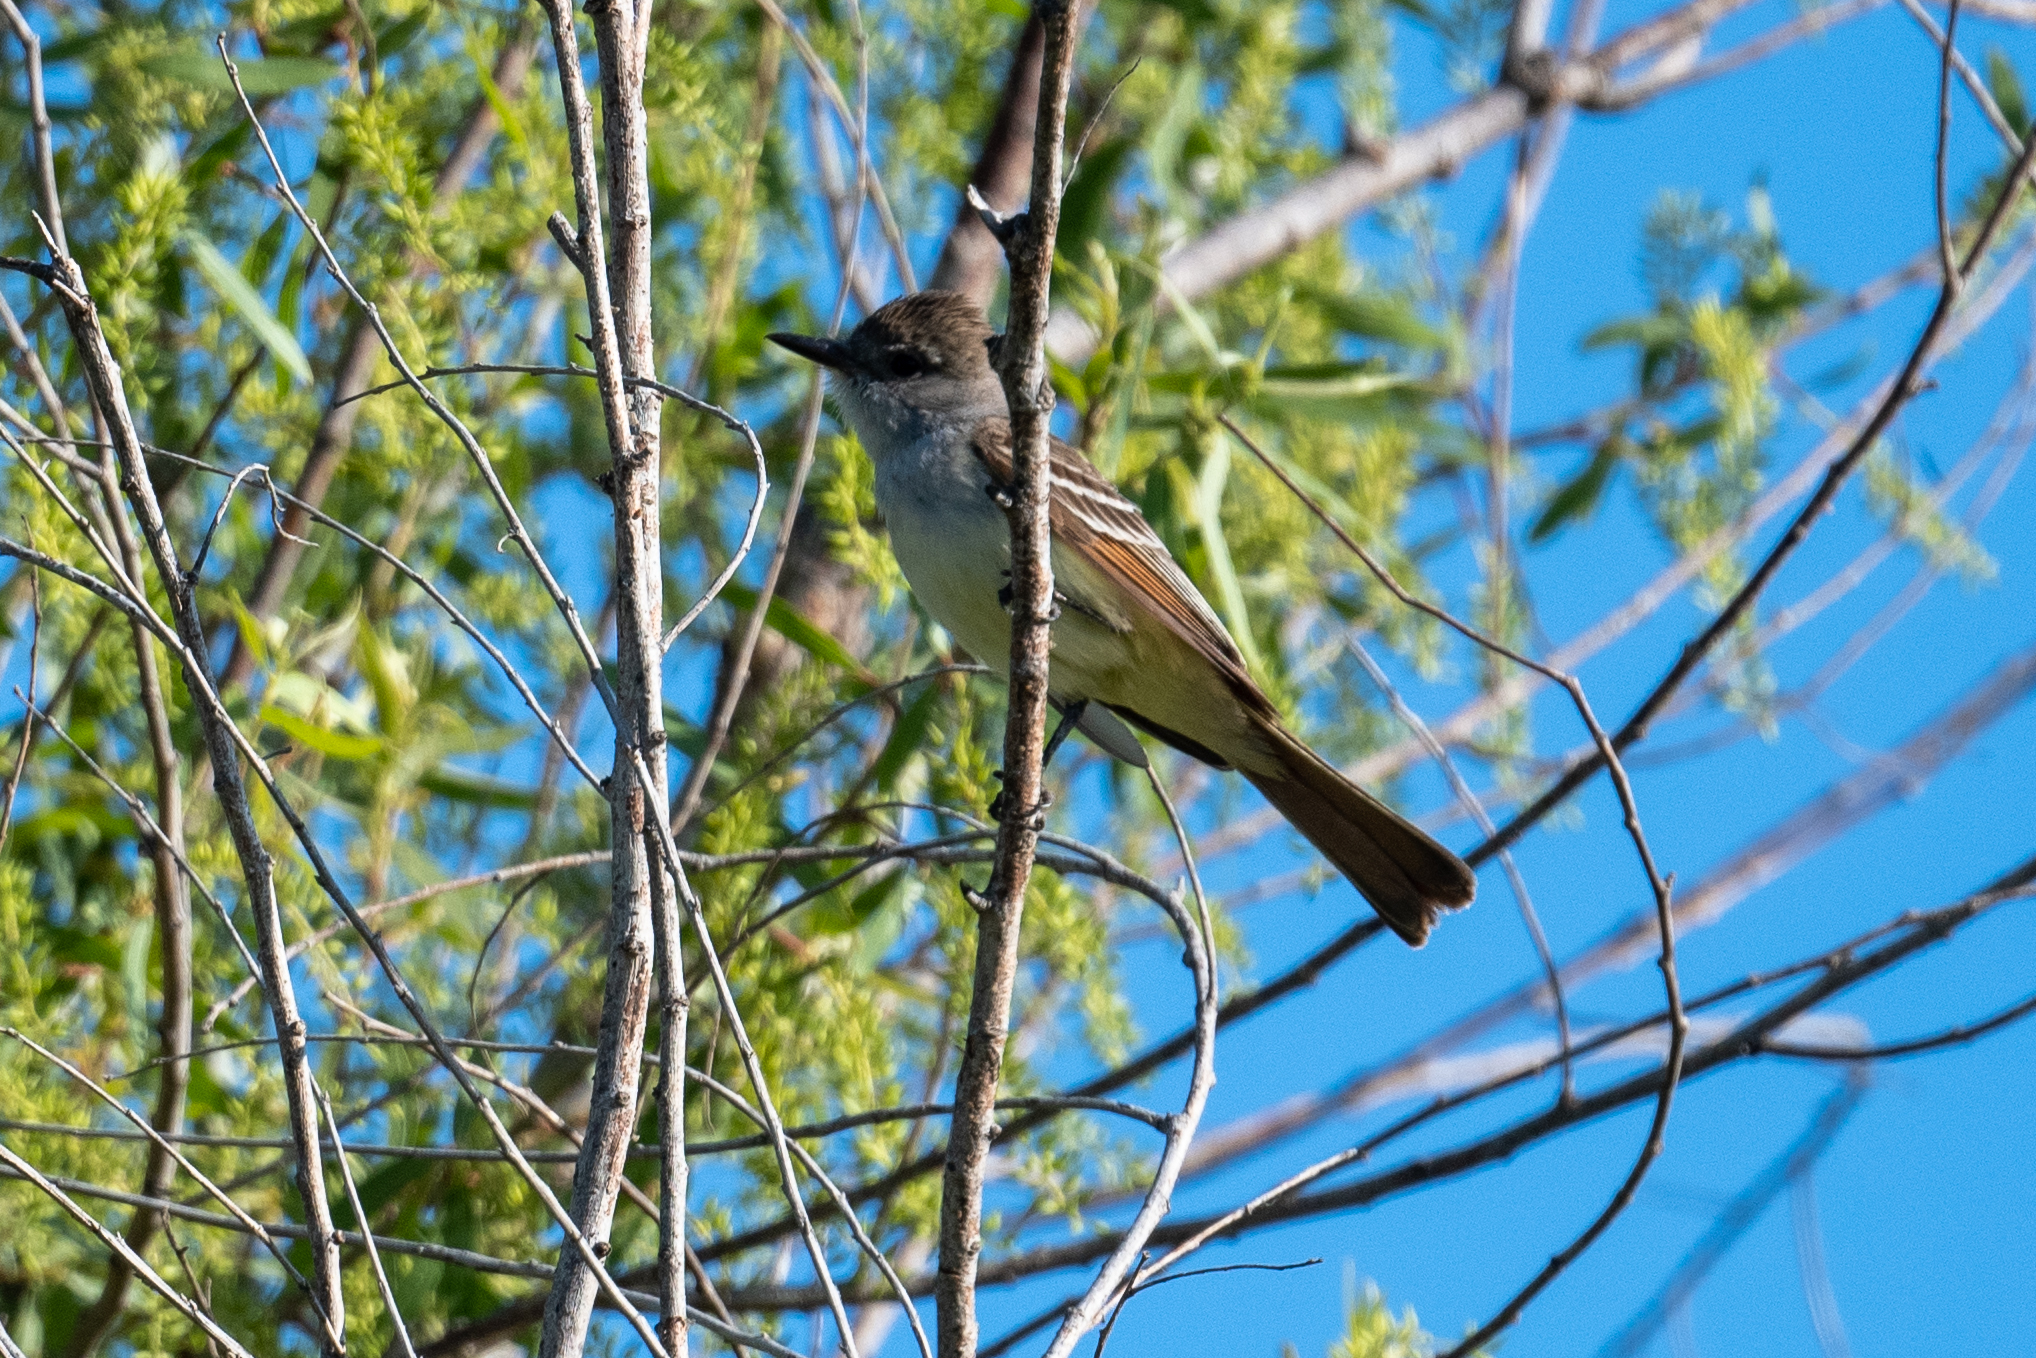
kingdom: Animalia
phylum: Chordata
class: Aves
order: Passeriformes
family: Tyrannidae
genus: Myiarchus
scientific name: Myiarchus cinerascens
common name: Ash-throated flycatcher
